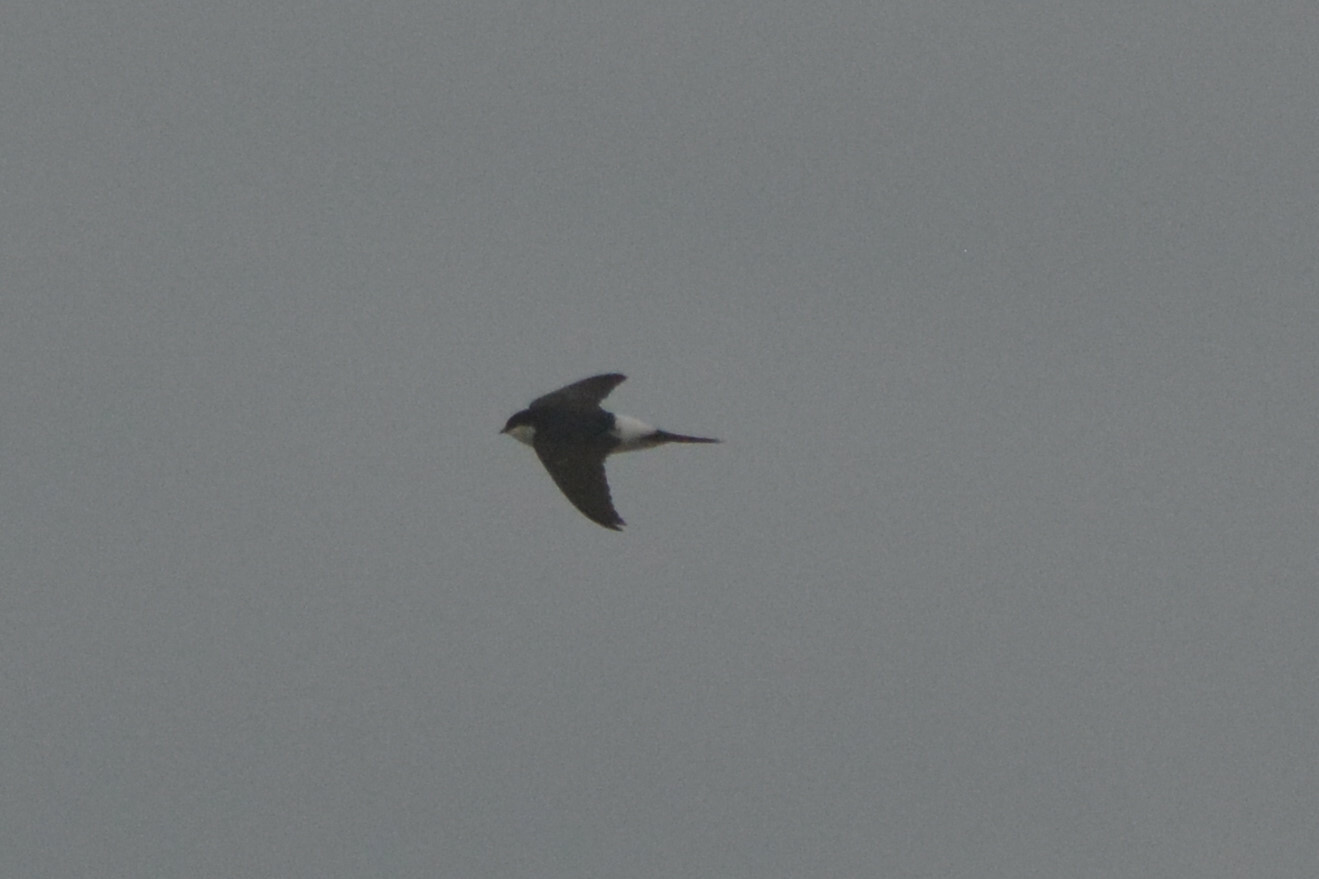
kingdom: Animalia
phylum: Chordata
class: Aves
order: Passeriformes
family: Hirundinidae
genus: Delichon
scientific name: Delichon urbicum
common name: Common house martin
